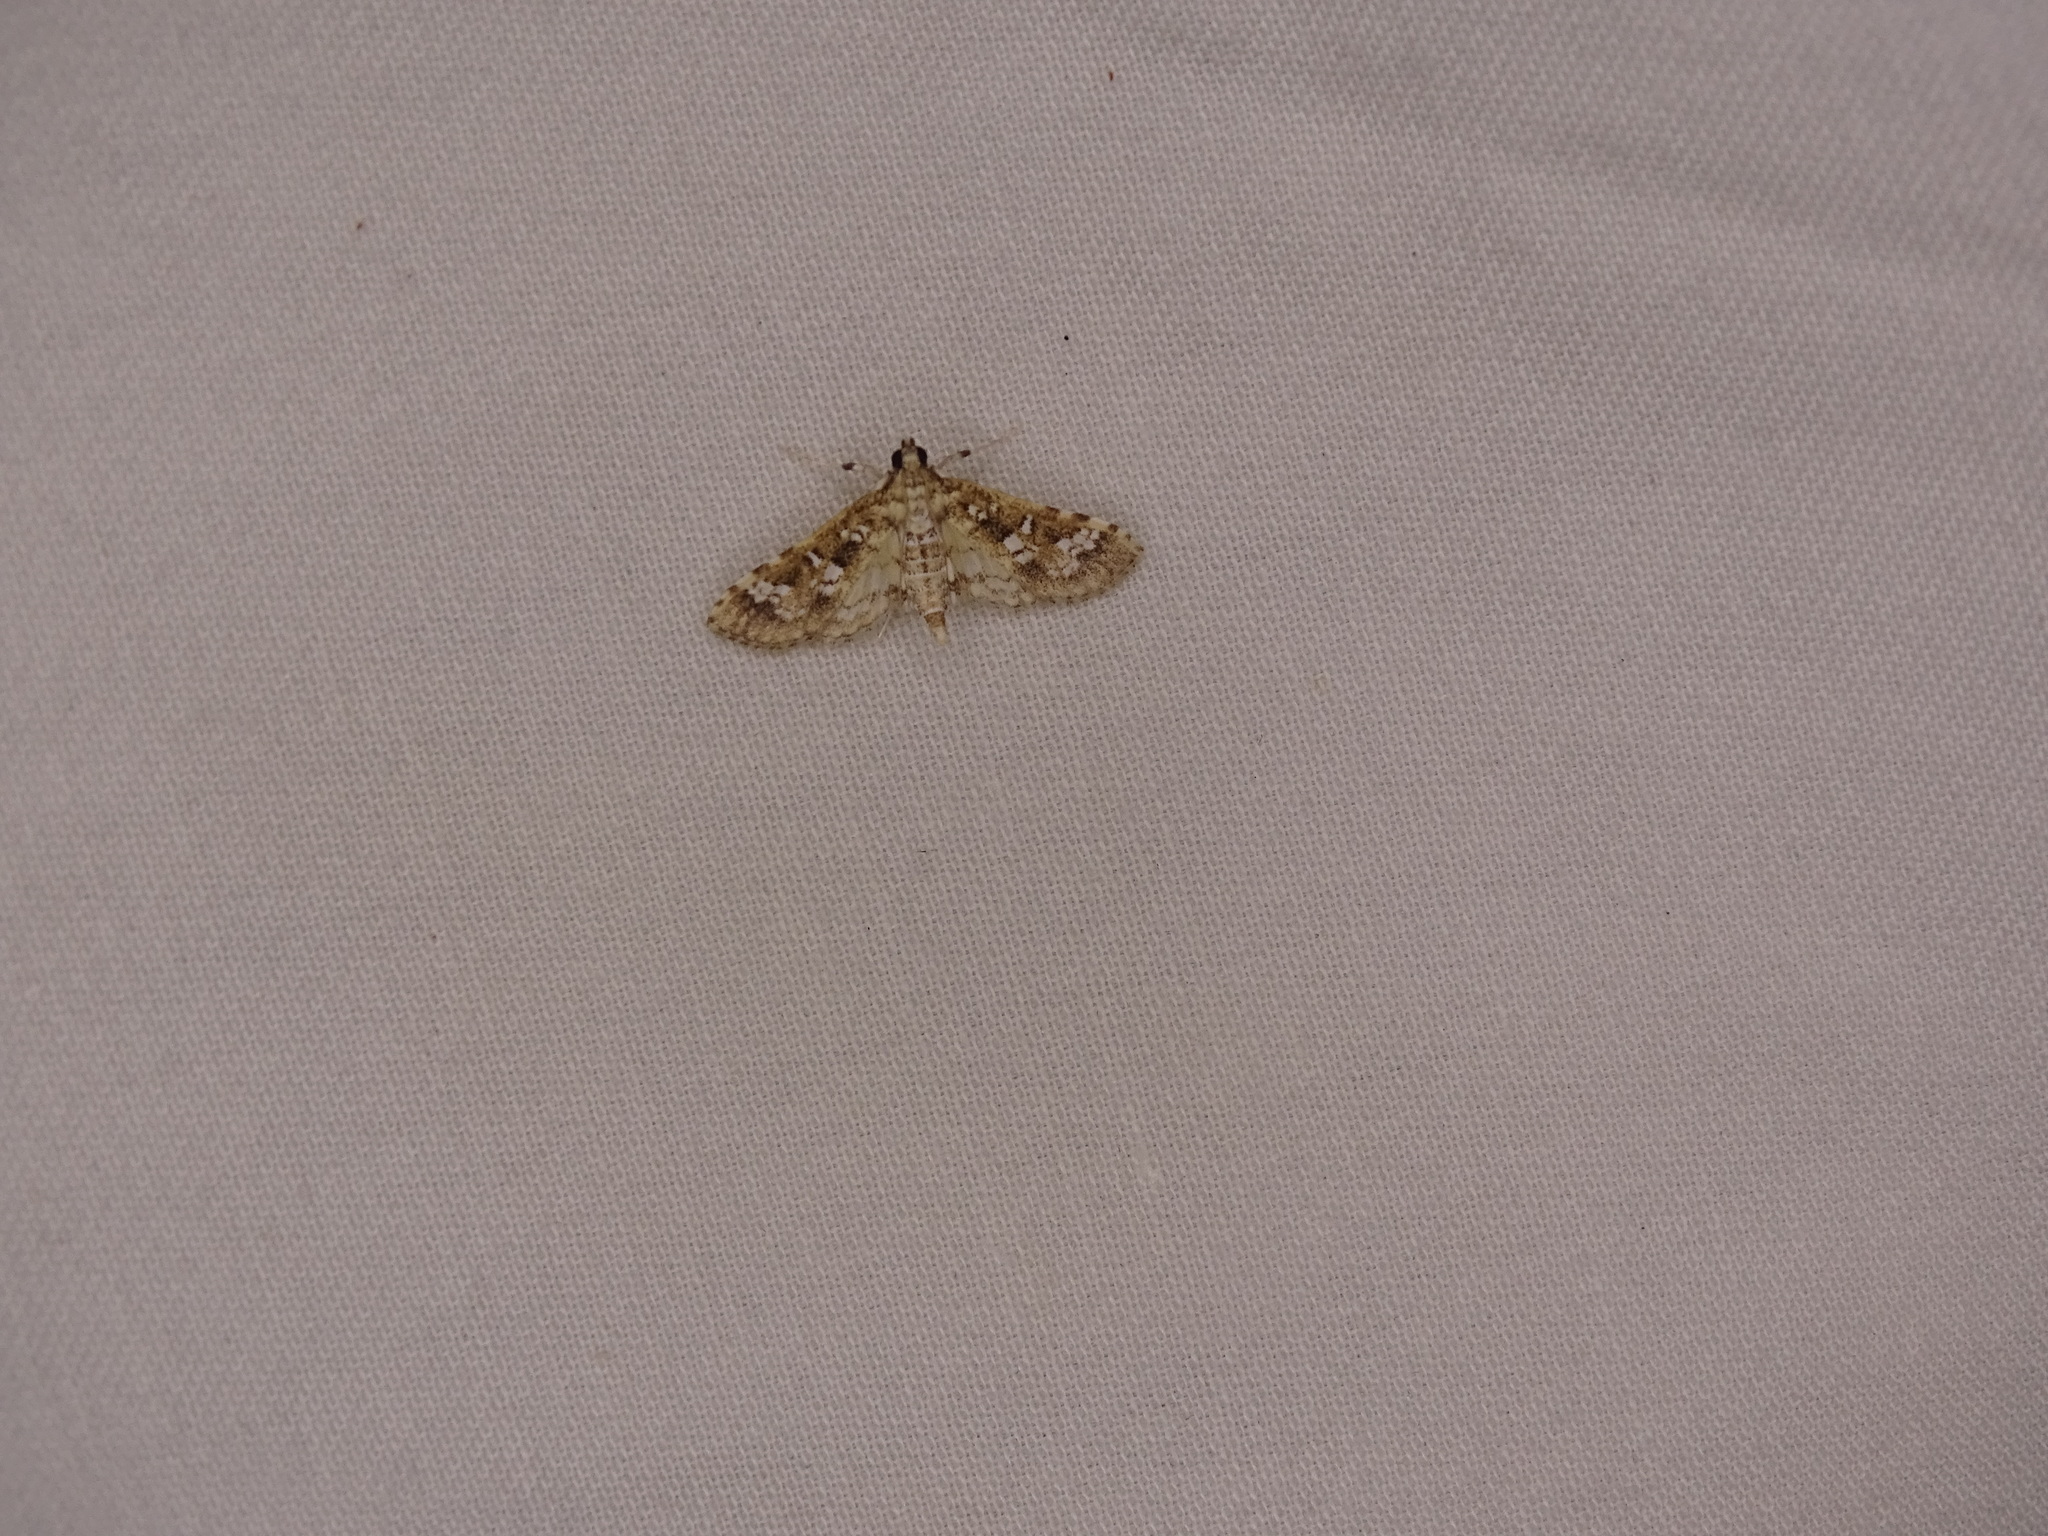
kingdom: Animalia
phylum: Arthropoda
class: Insecta
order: Lepidoptera
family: Crambidae
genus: Samea
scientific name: Samea multiplicalis
